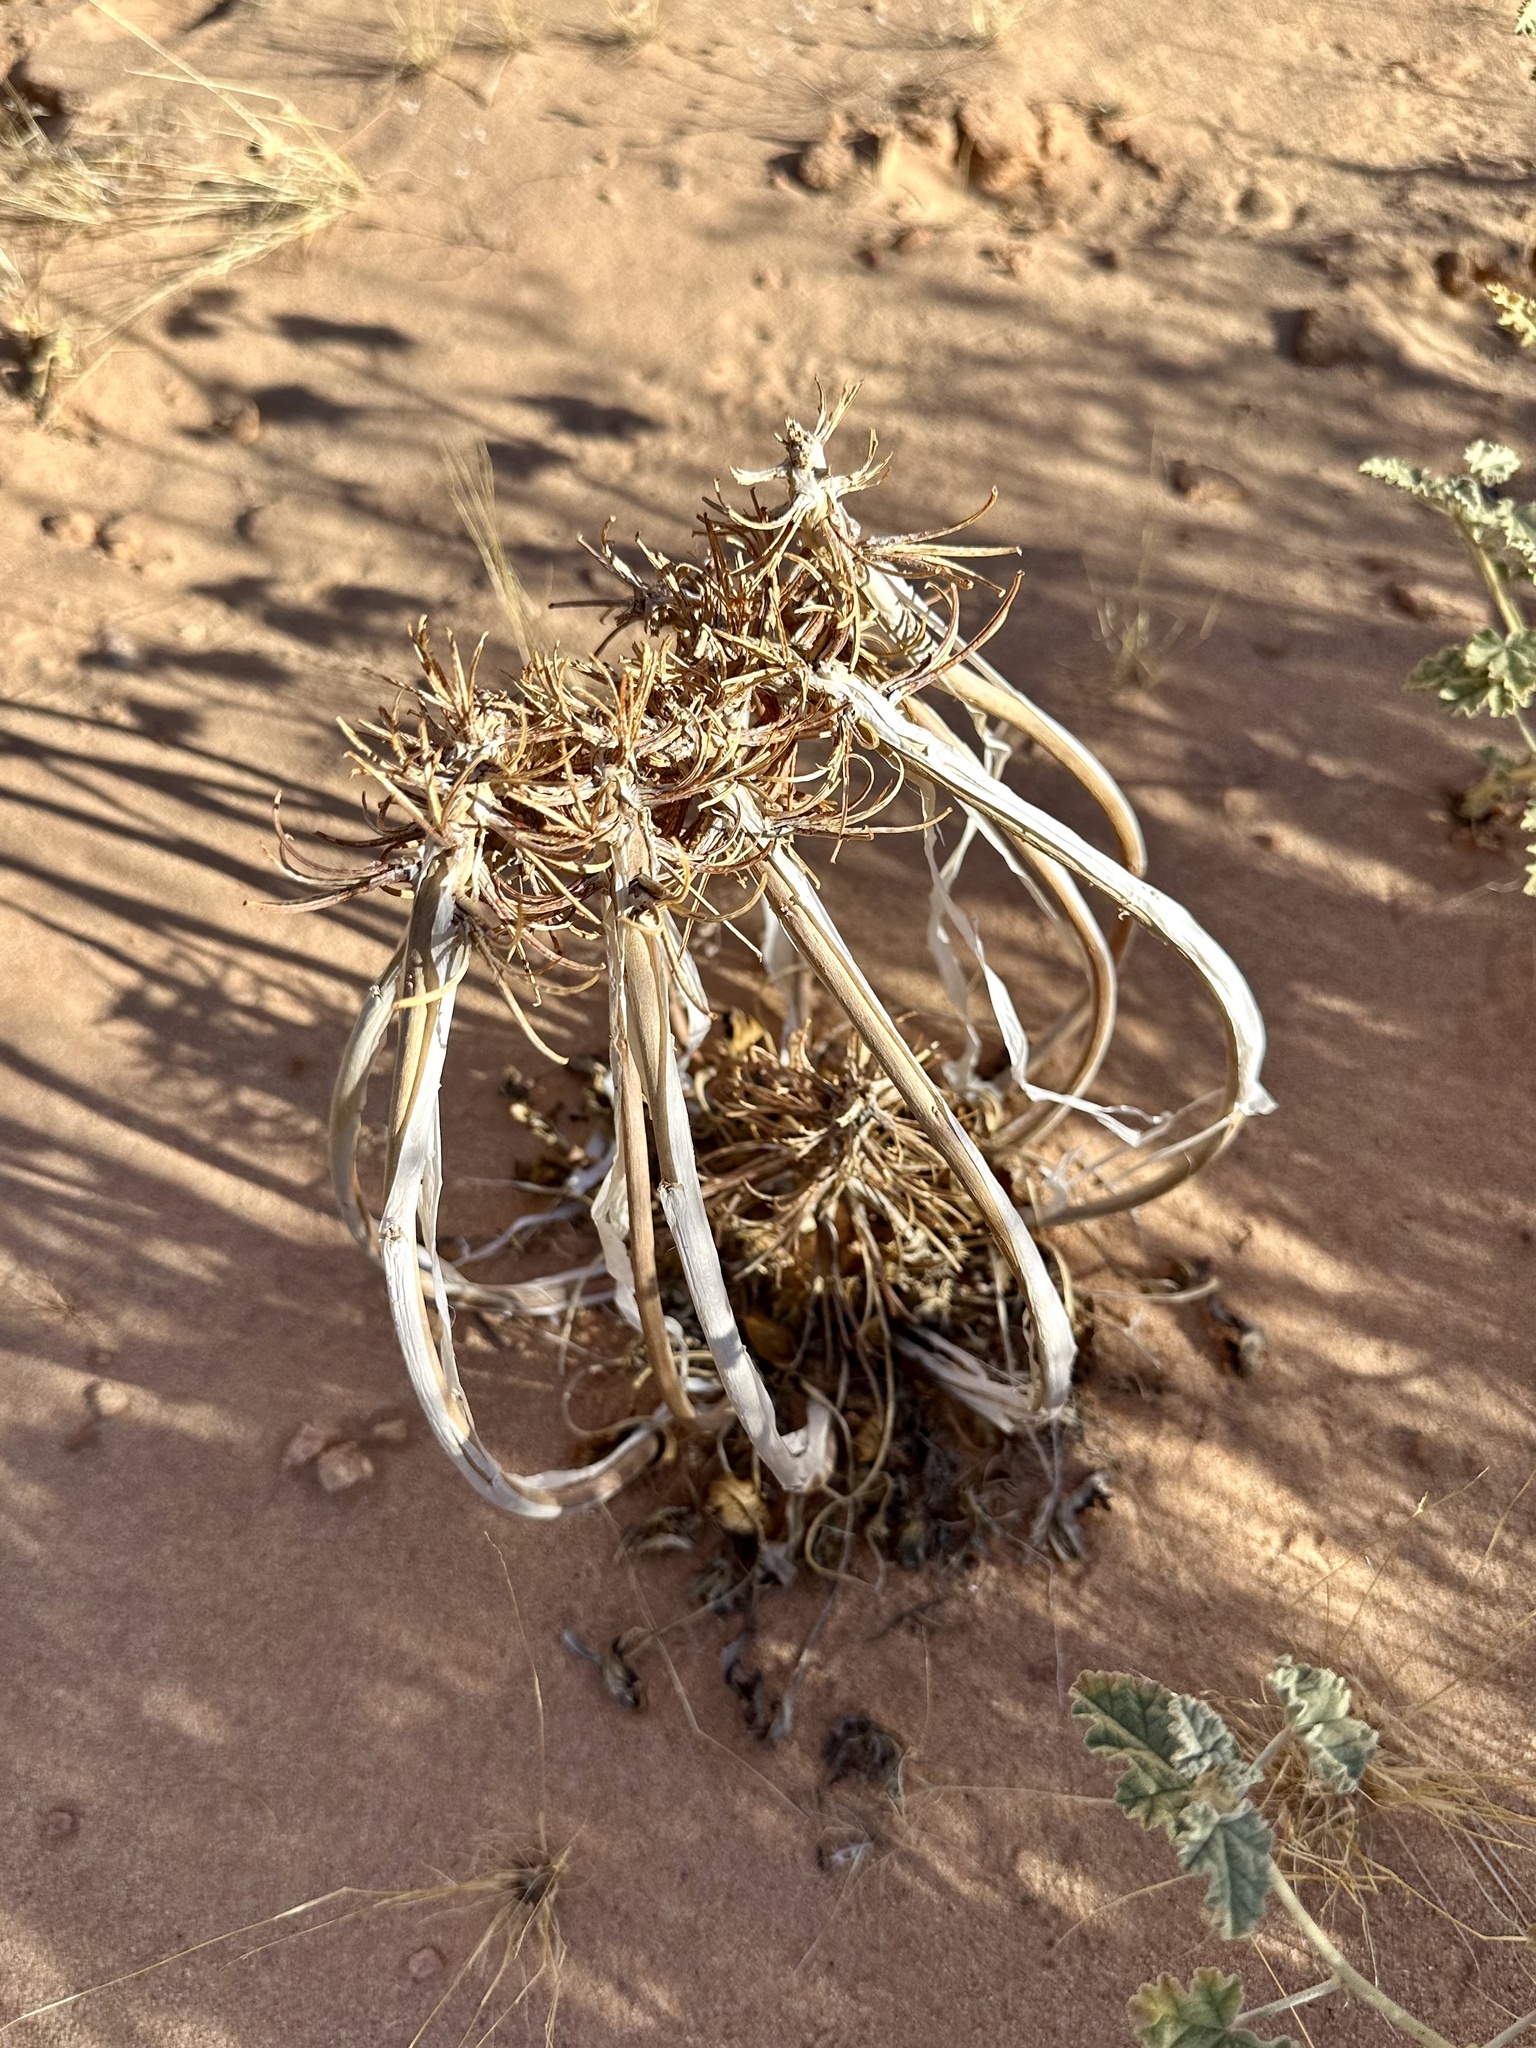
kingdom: Plantae
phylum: Tracheophyta
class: Magnoliopsida
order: Myrtales
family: Onagraceae
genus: Oenothera
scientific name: Oenothera deltoides
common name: Basket evening-primrose
